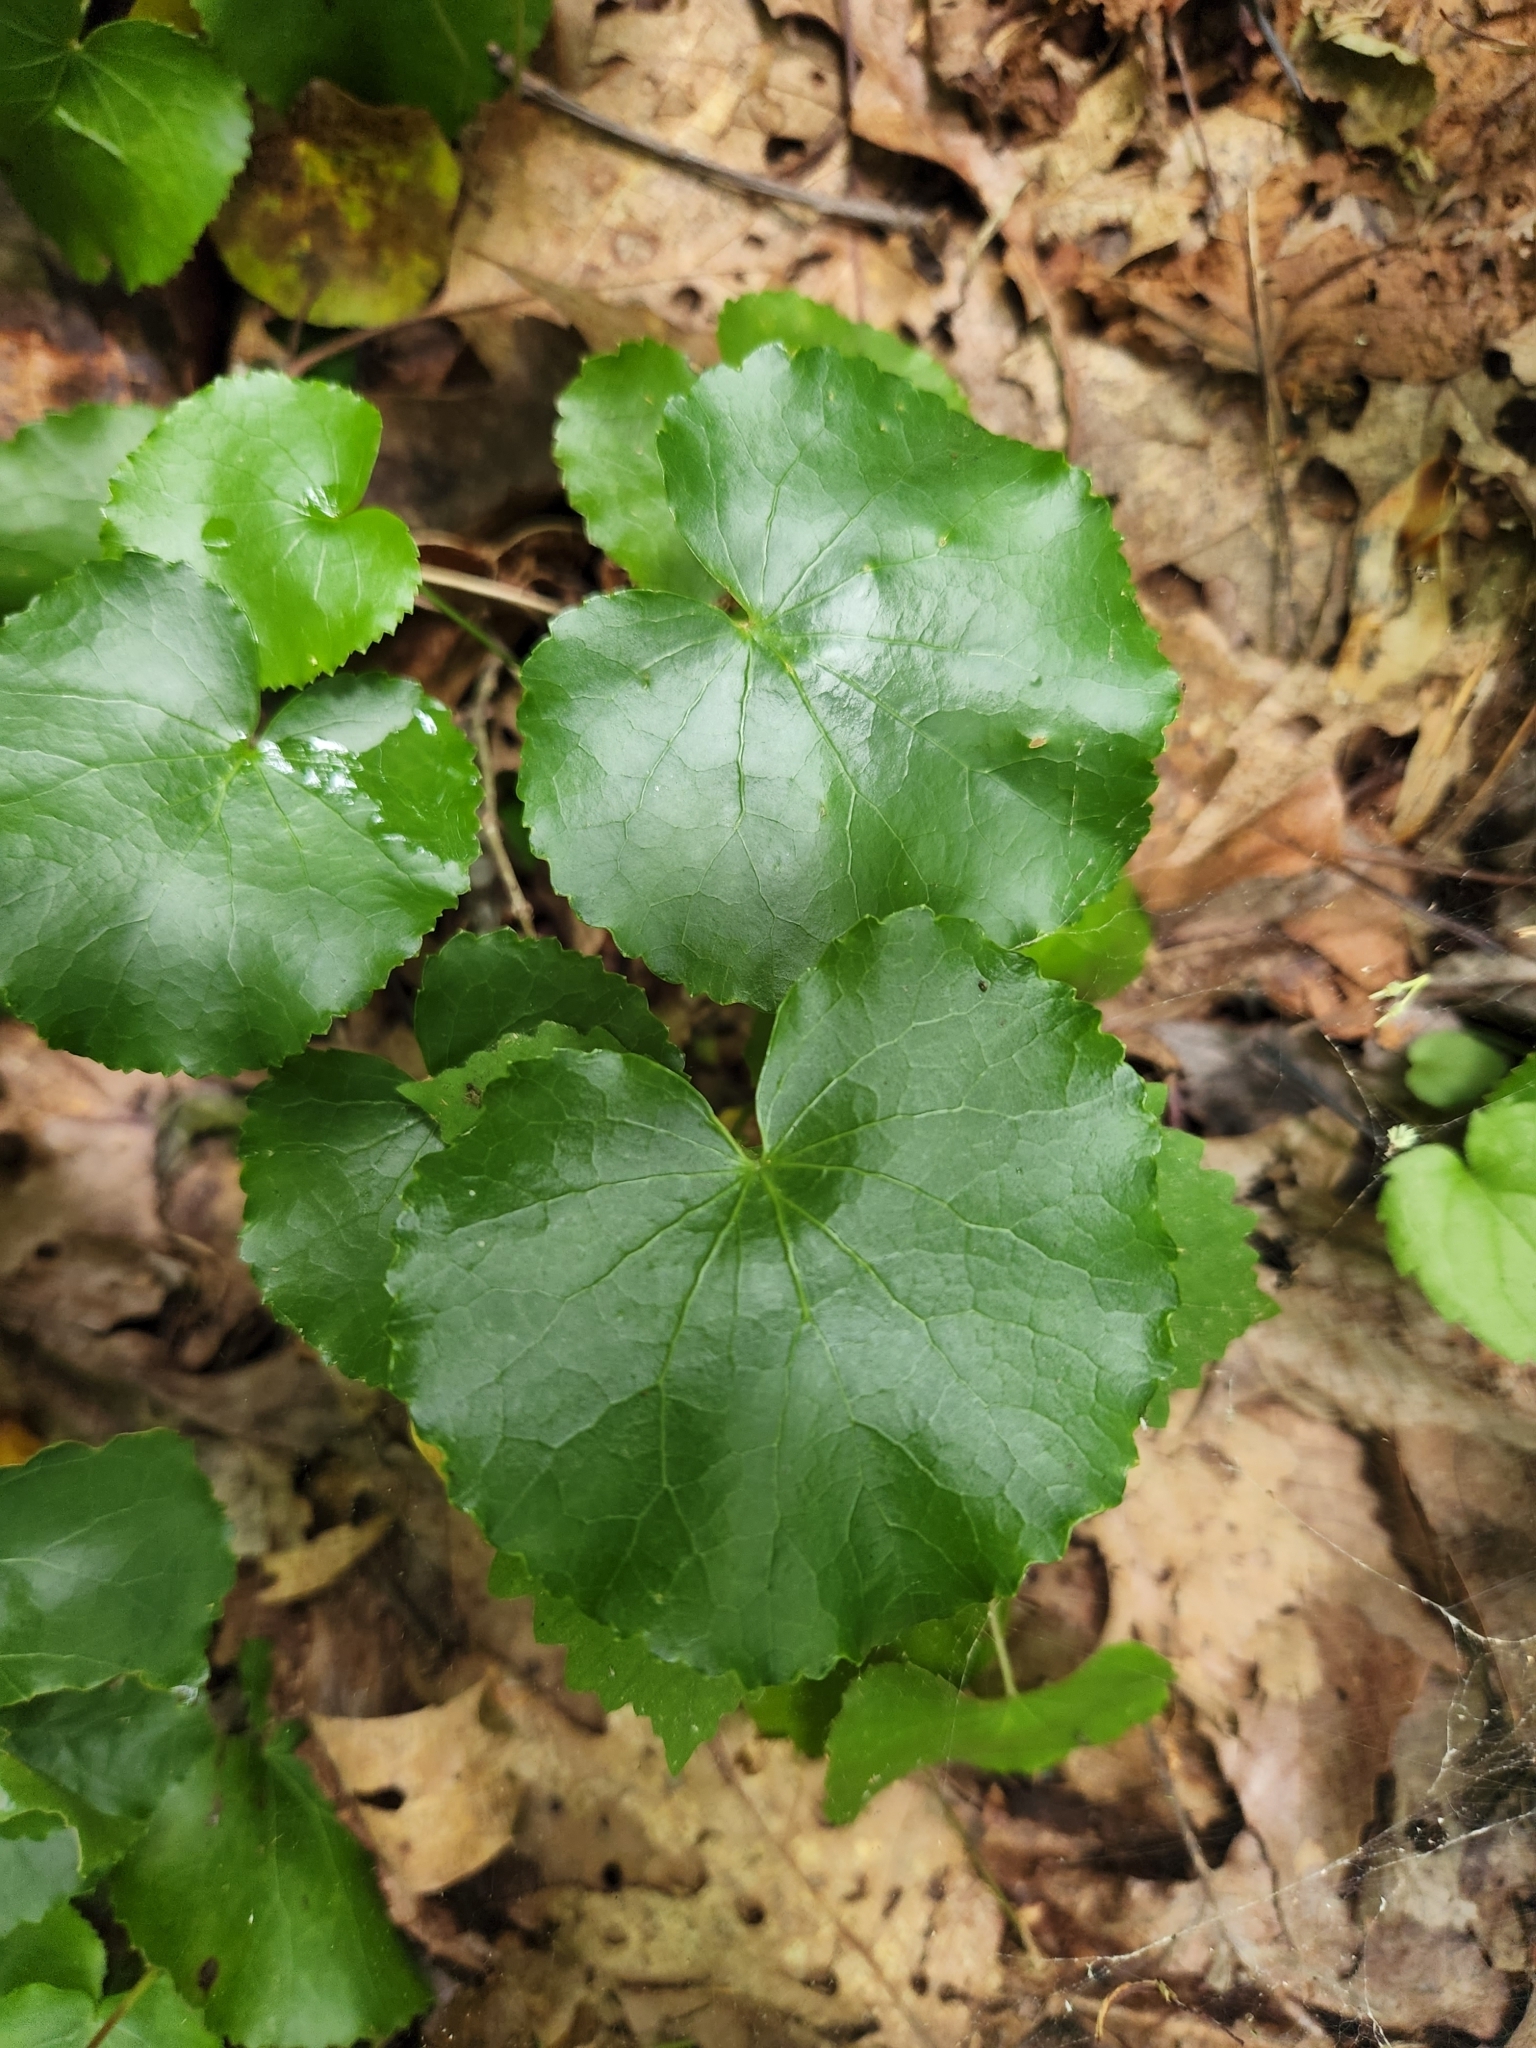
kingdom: Plantae
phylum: Tracheophyta
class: Magnoliopsida
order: Ericales
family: Diapensiaceae
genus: Galax
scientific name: Galax urceolata
